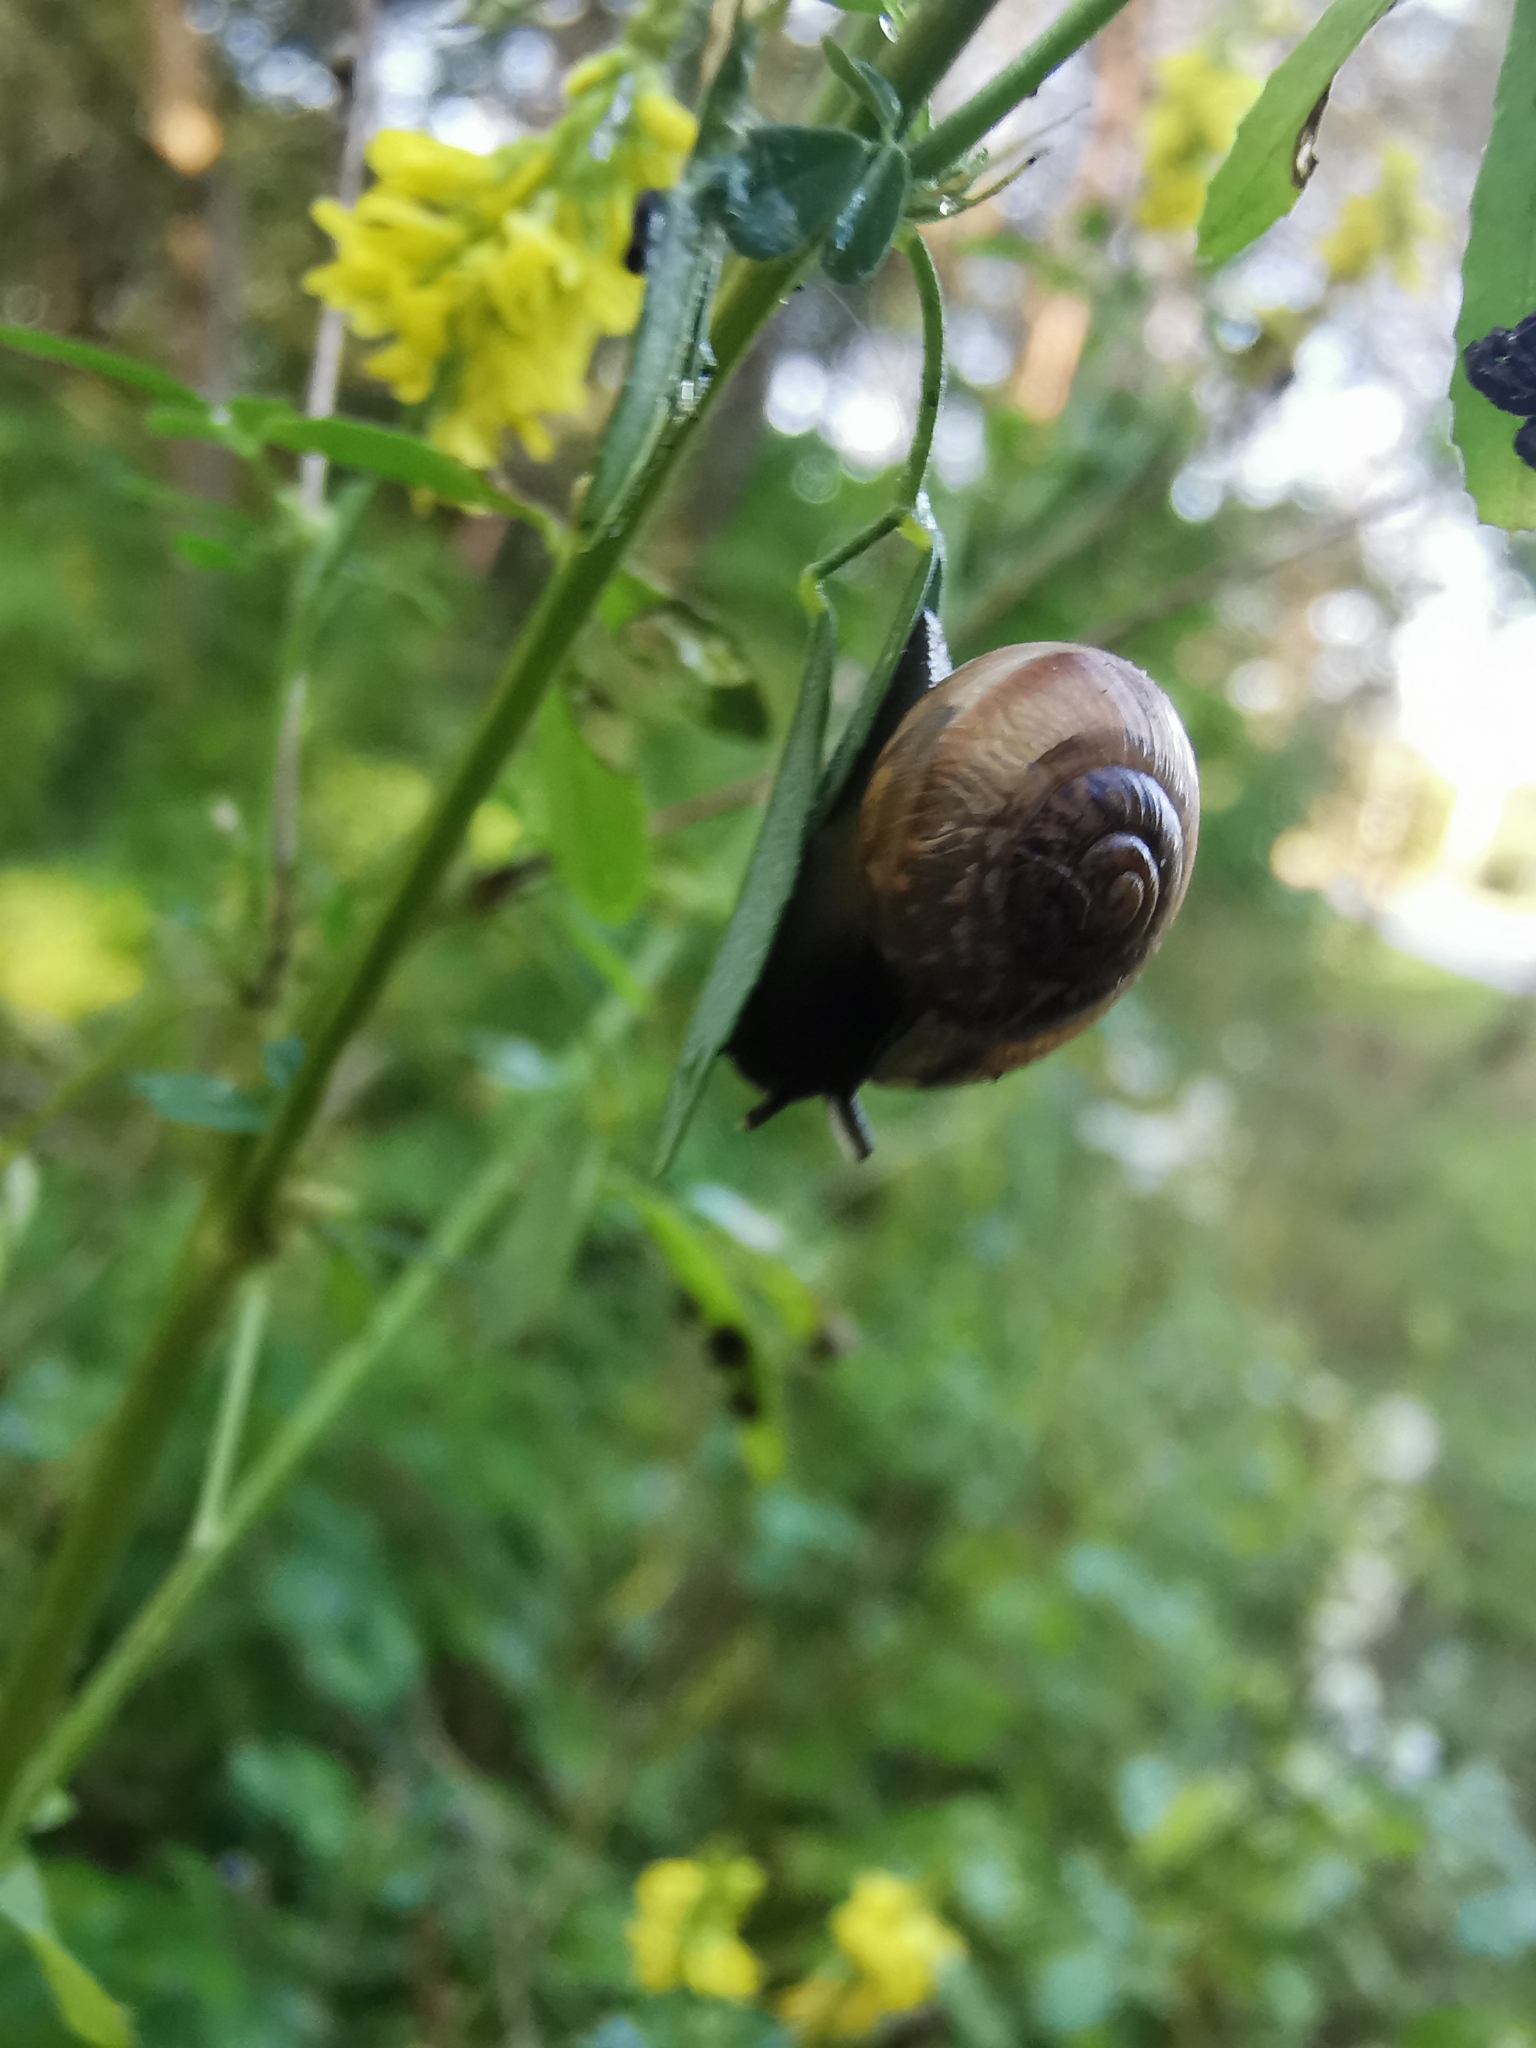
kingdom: Animalia
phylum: Mollusca
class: Gastropoda
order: Stylommatophora
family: Helicidae
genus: Arianta
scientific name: Arianta arbustorum
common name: Copse snail
